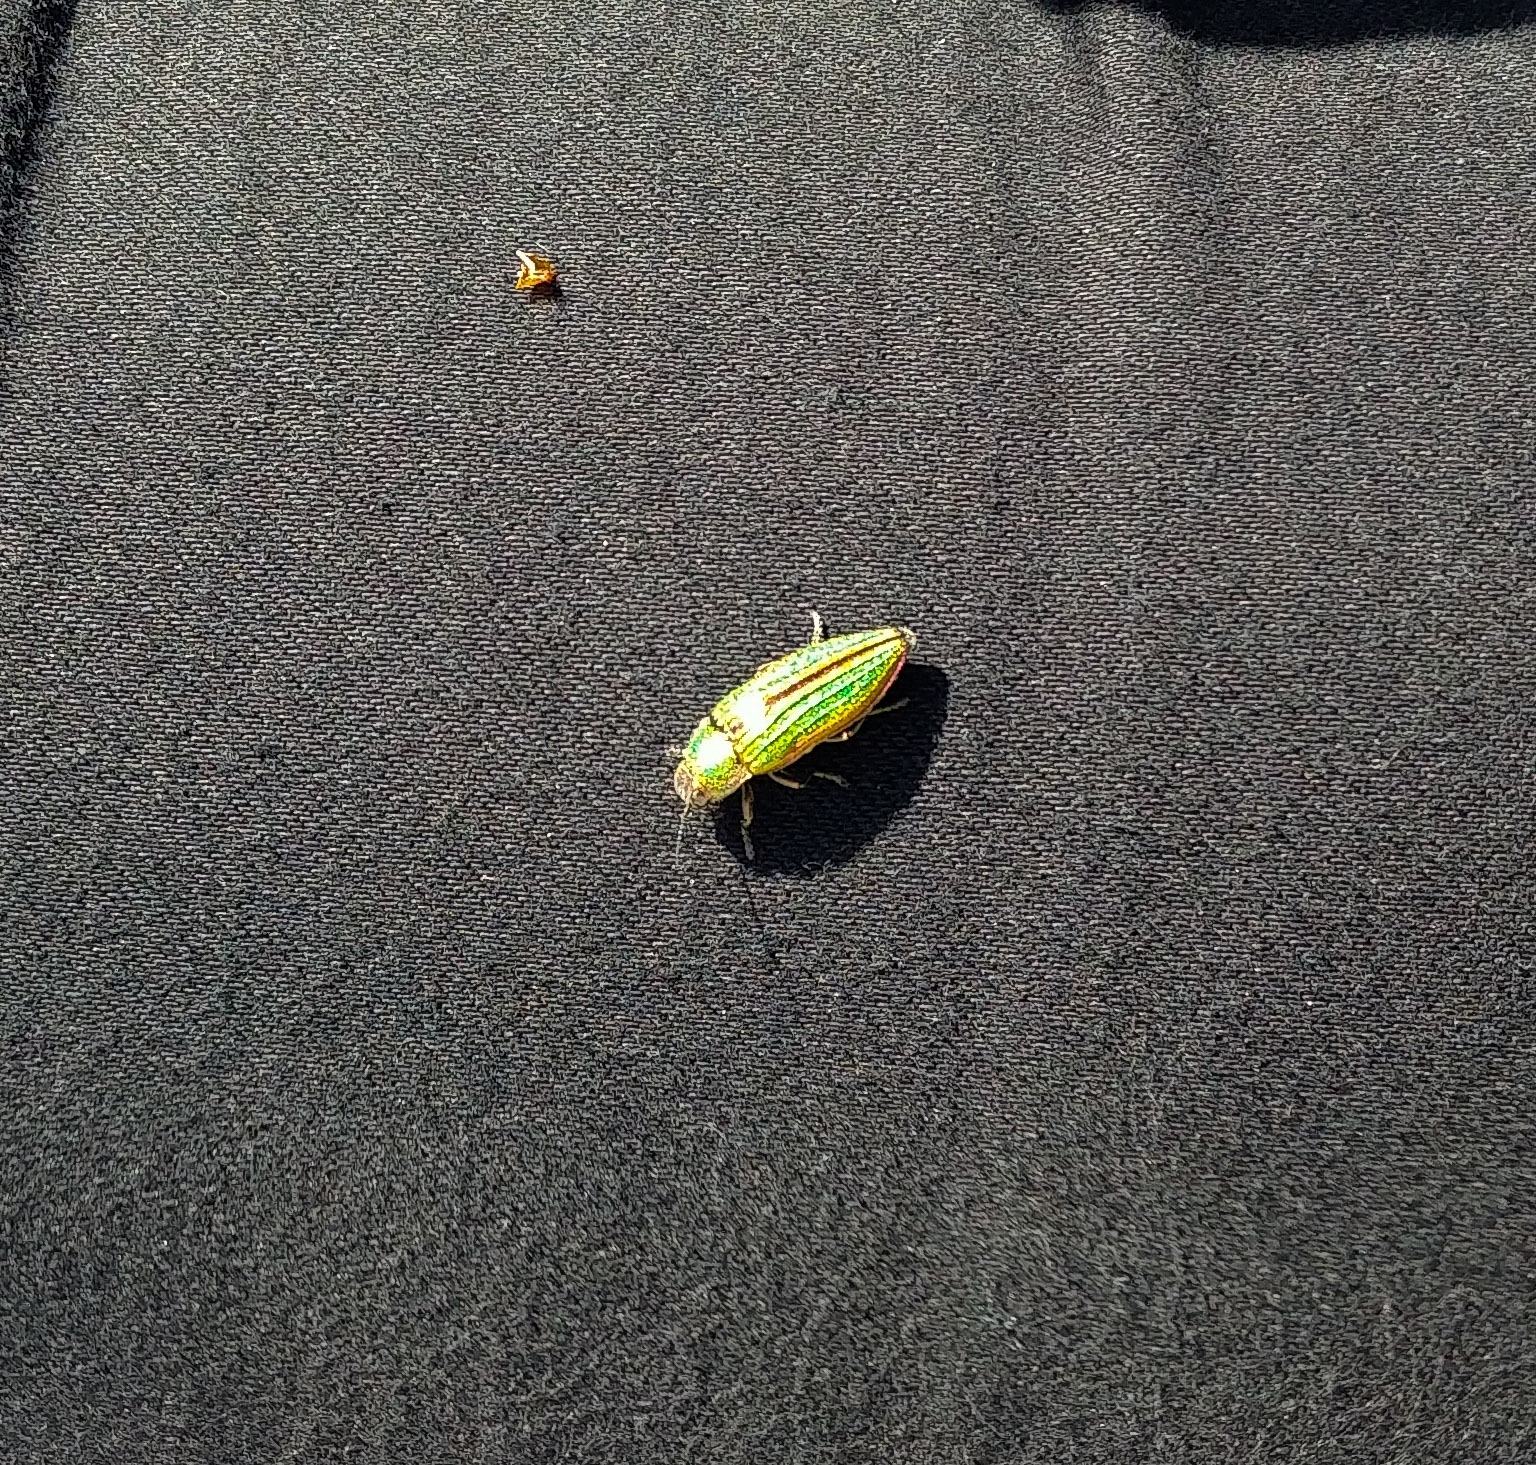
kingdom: Animalia
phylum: Arthropoda
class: Insecta
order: Coleoptera
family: Buprestidae
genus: Buprestis
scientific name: Buprestis aurulenta
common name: Golden buprestid
